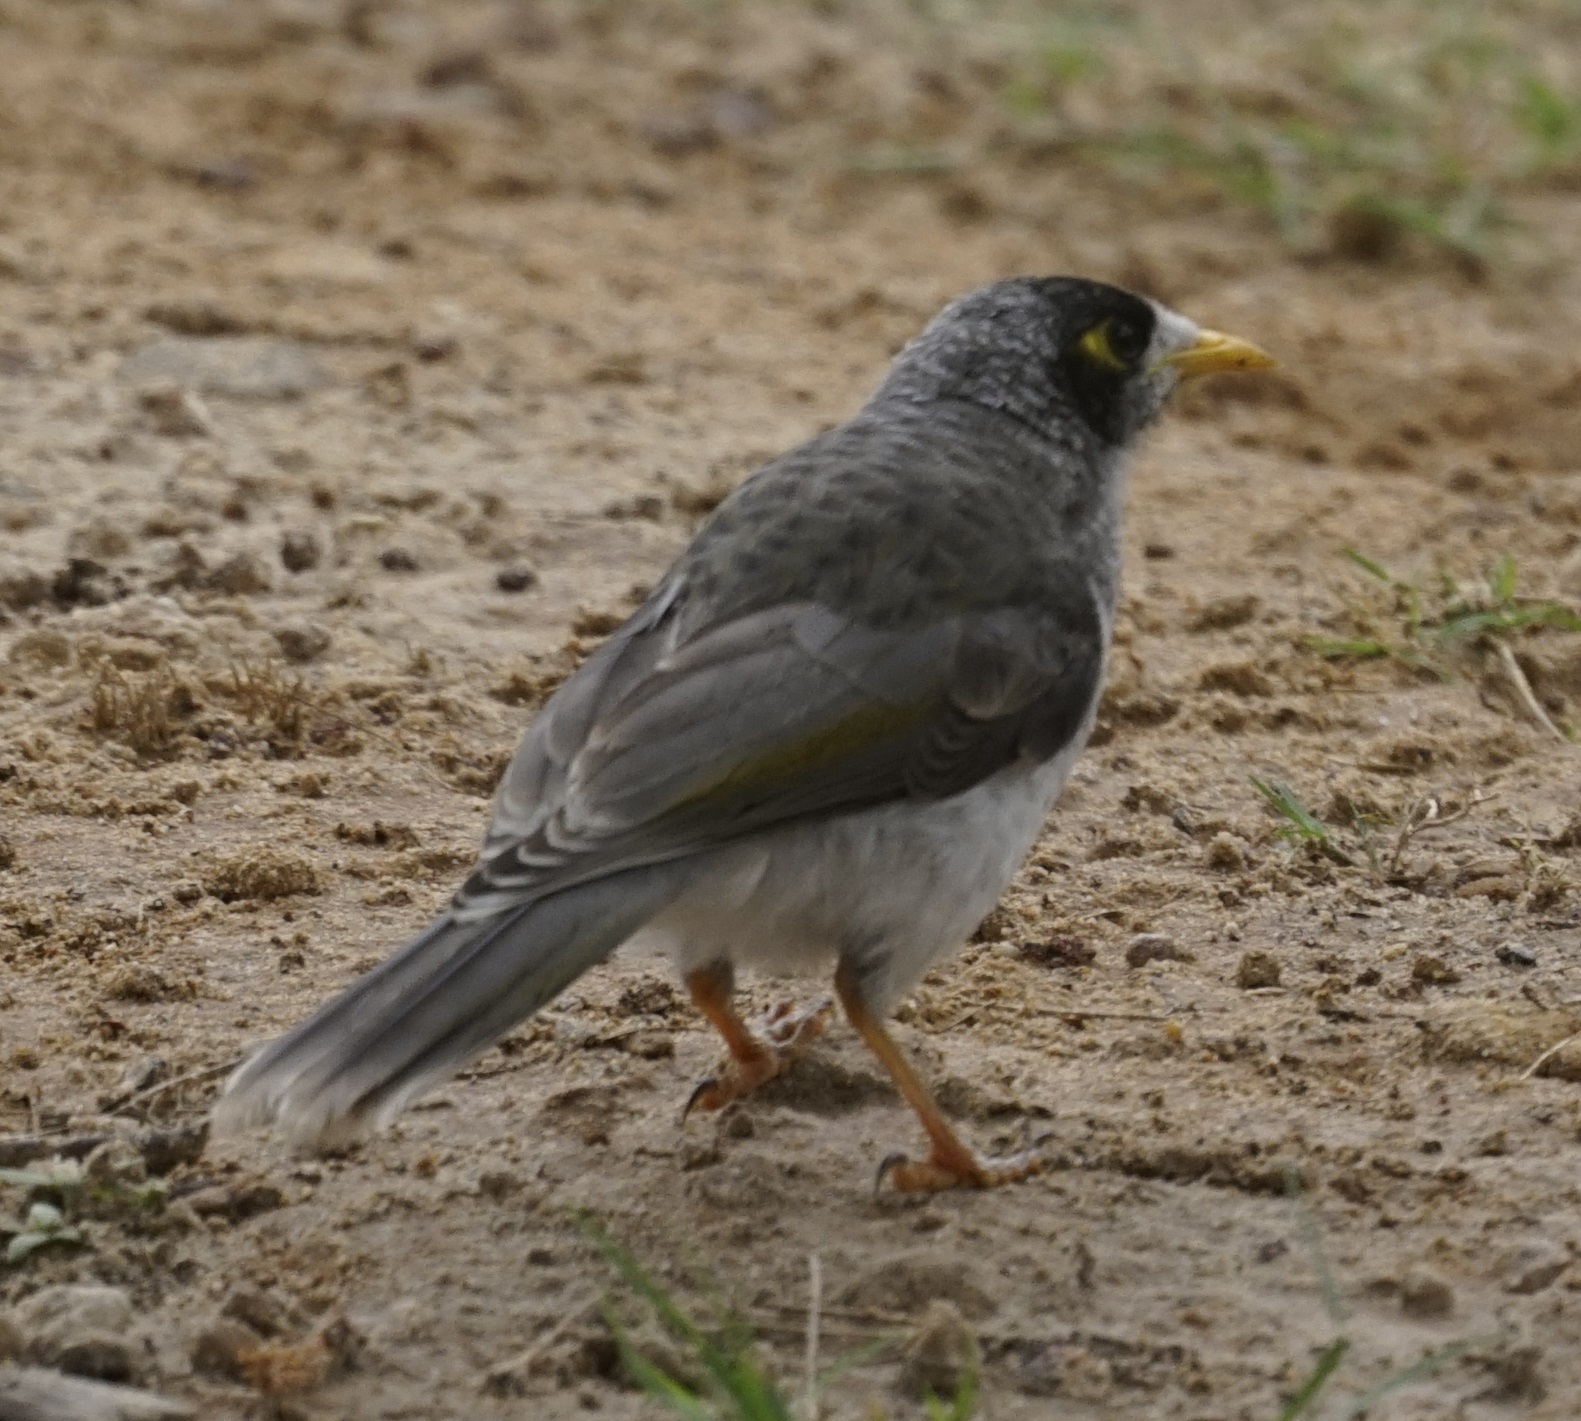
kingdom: Animalia
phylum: Chordata
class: Aves
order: Passeriformes
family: Meliphagidae
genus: Manorina
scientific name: Manorina melanocephala
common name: Noisy miner
